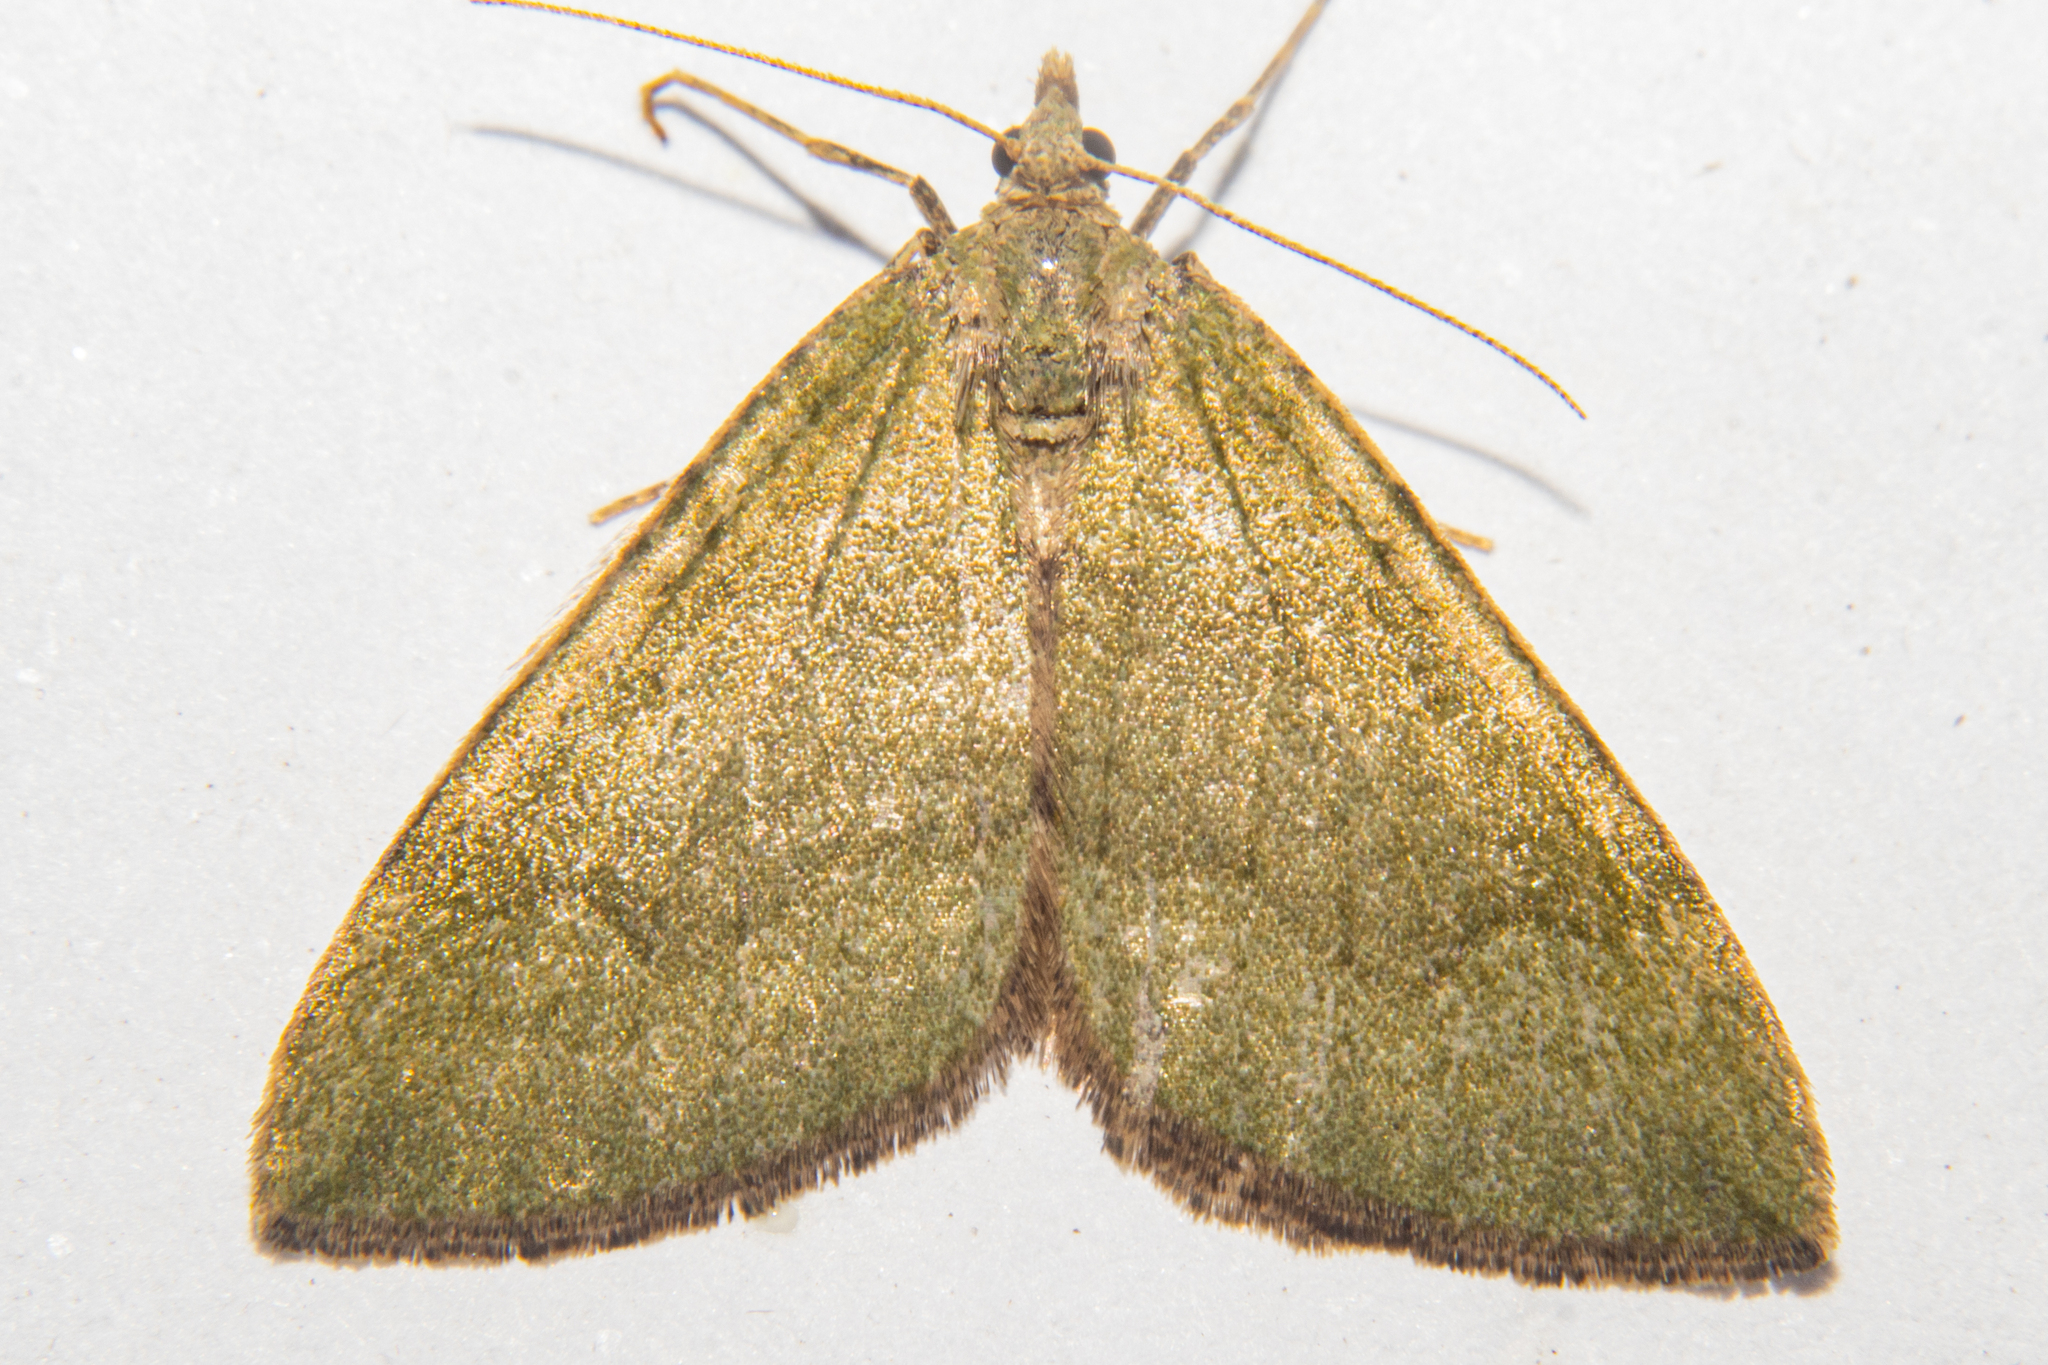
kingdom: Animalia
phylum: Arthropoda
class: Insecta
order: Lepidoptera
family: Geometridae
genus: Epyaxa
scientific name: Epyaxa rosearia
